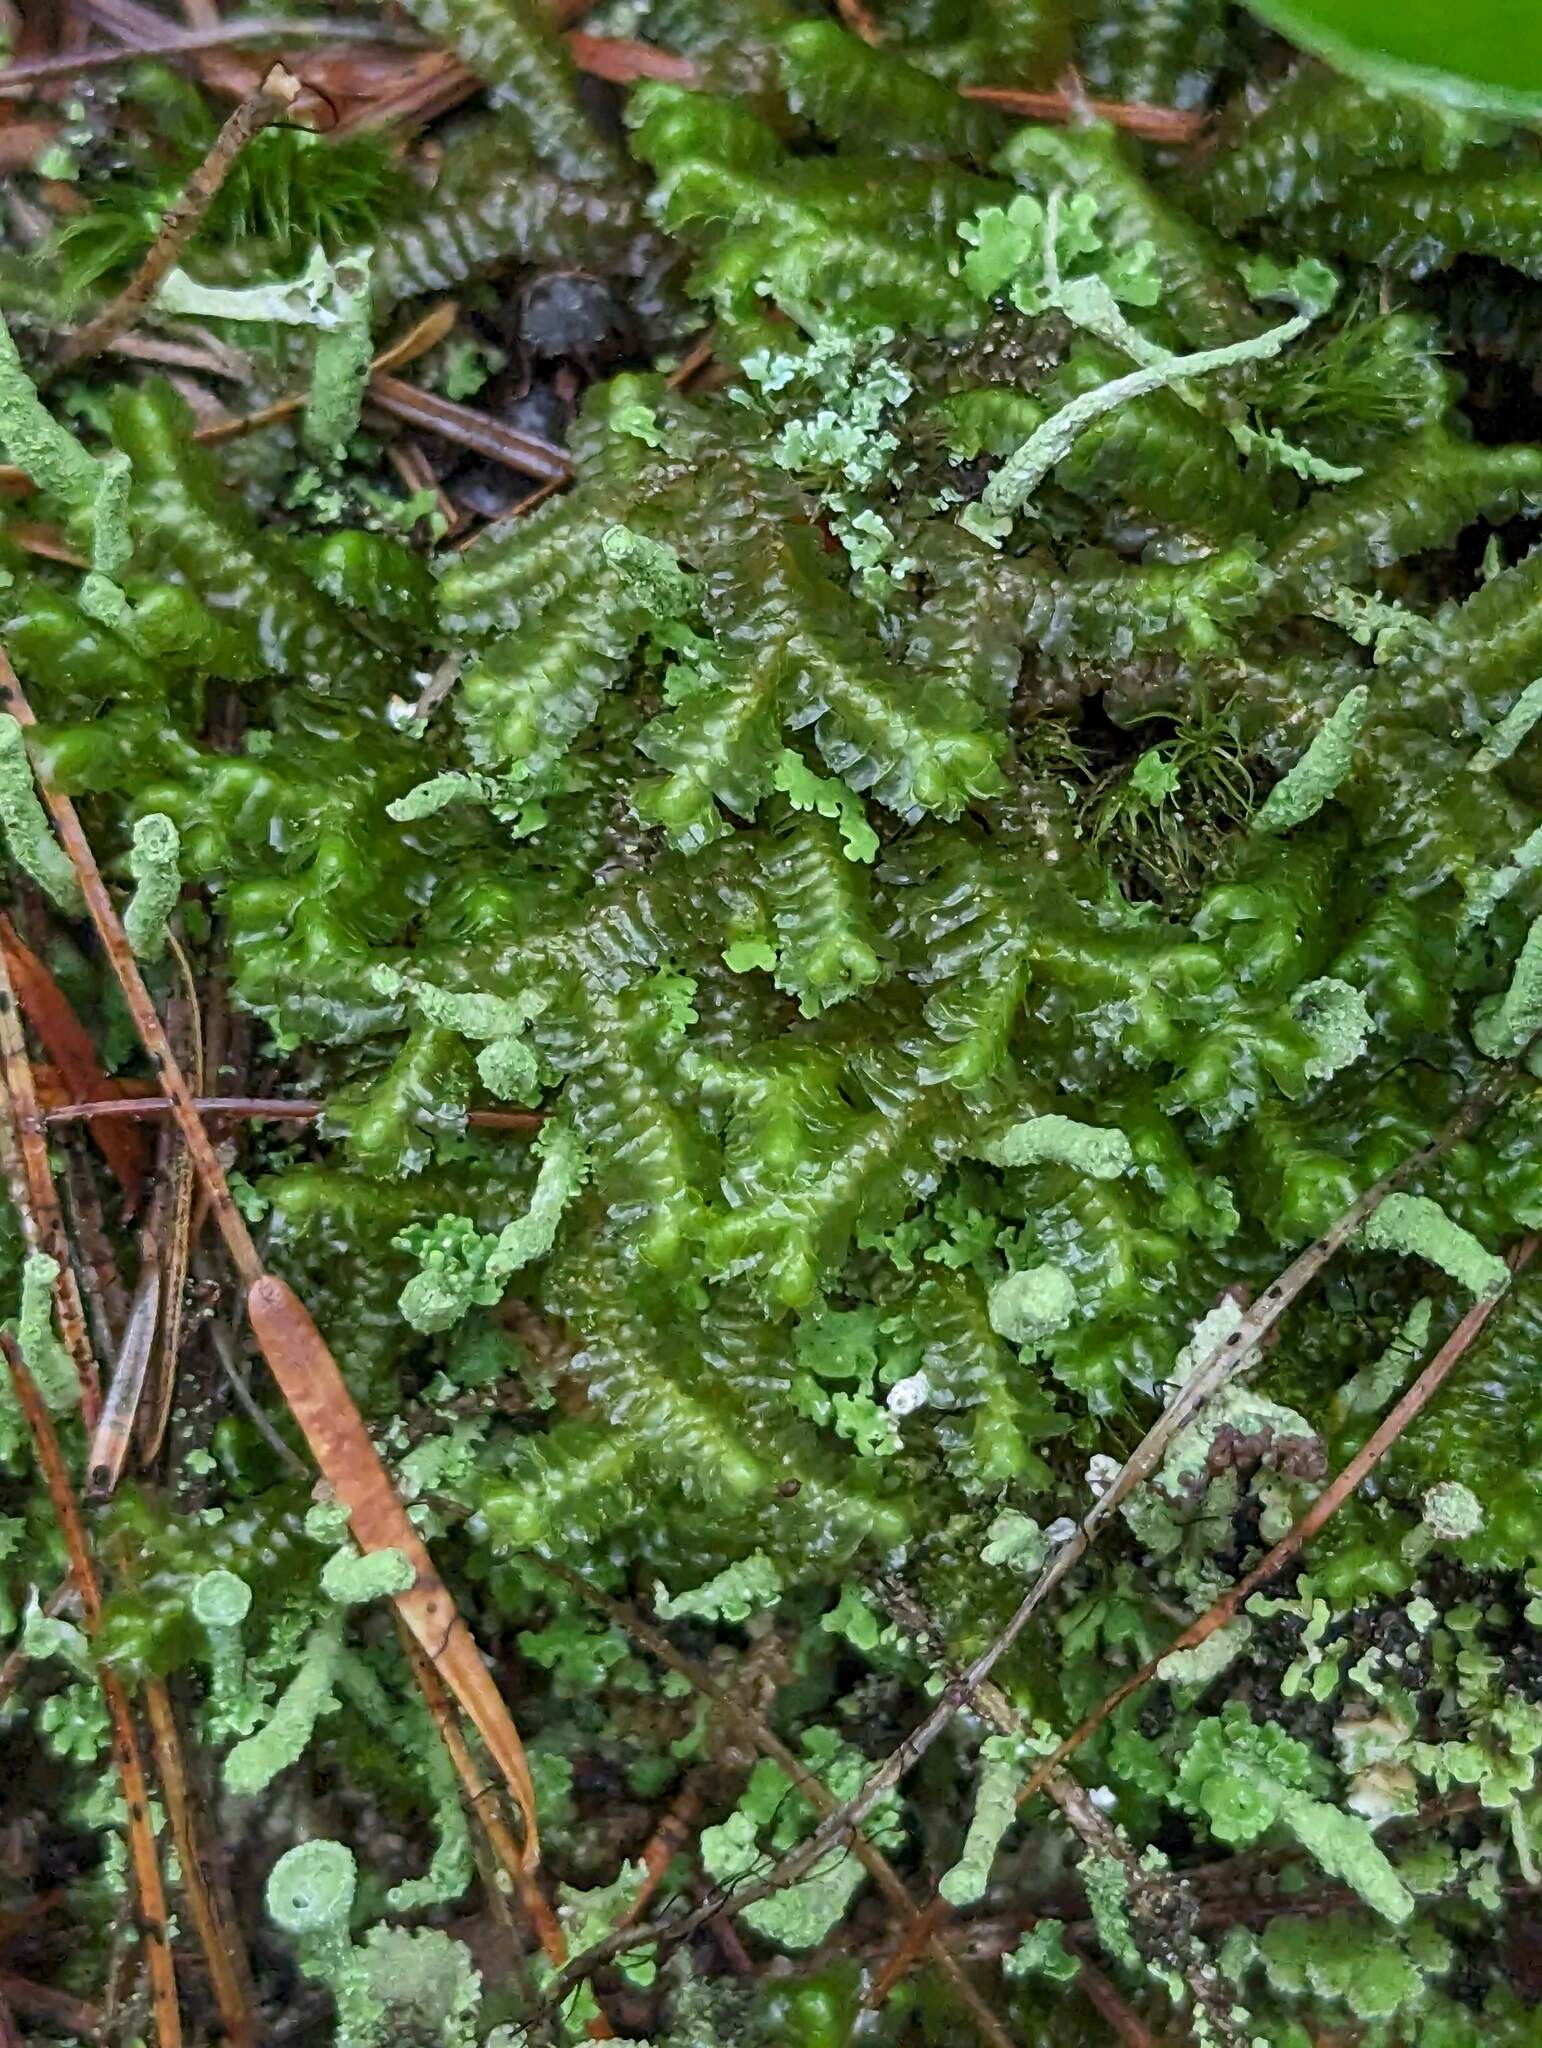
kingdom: Plantae
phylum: Marchantiophyta
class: Jungermanniopsida
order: Jungermanniales
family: Lepidoziaceae
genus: Bazzania
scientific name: Bazzania trilobata
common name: Three-lobed whipwort
